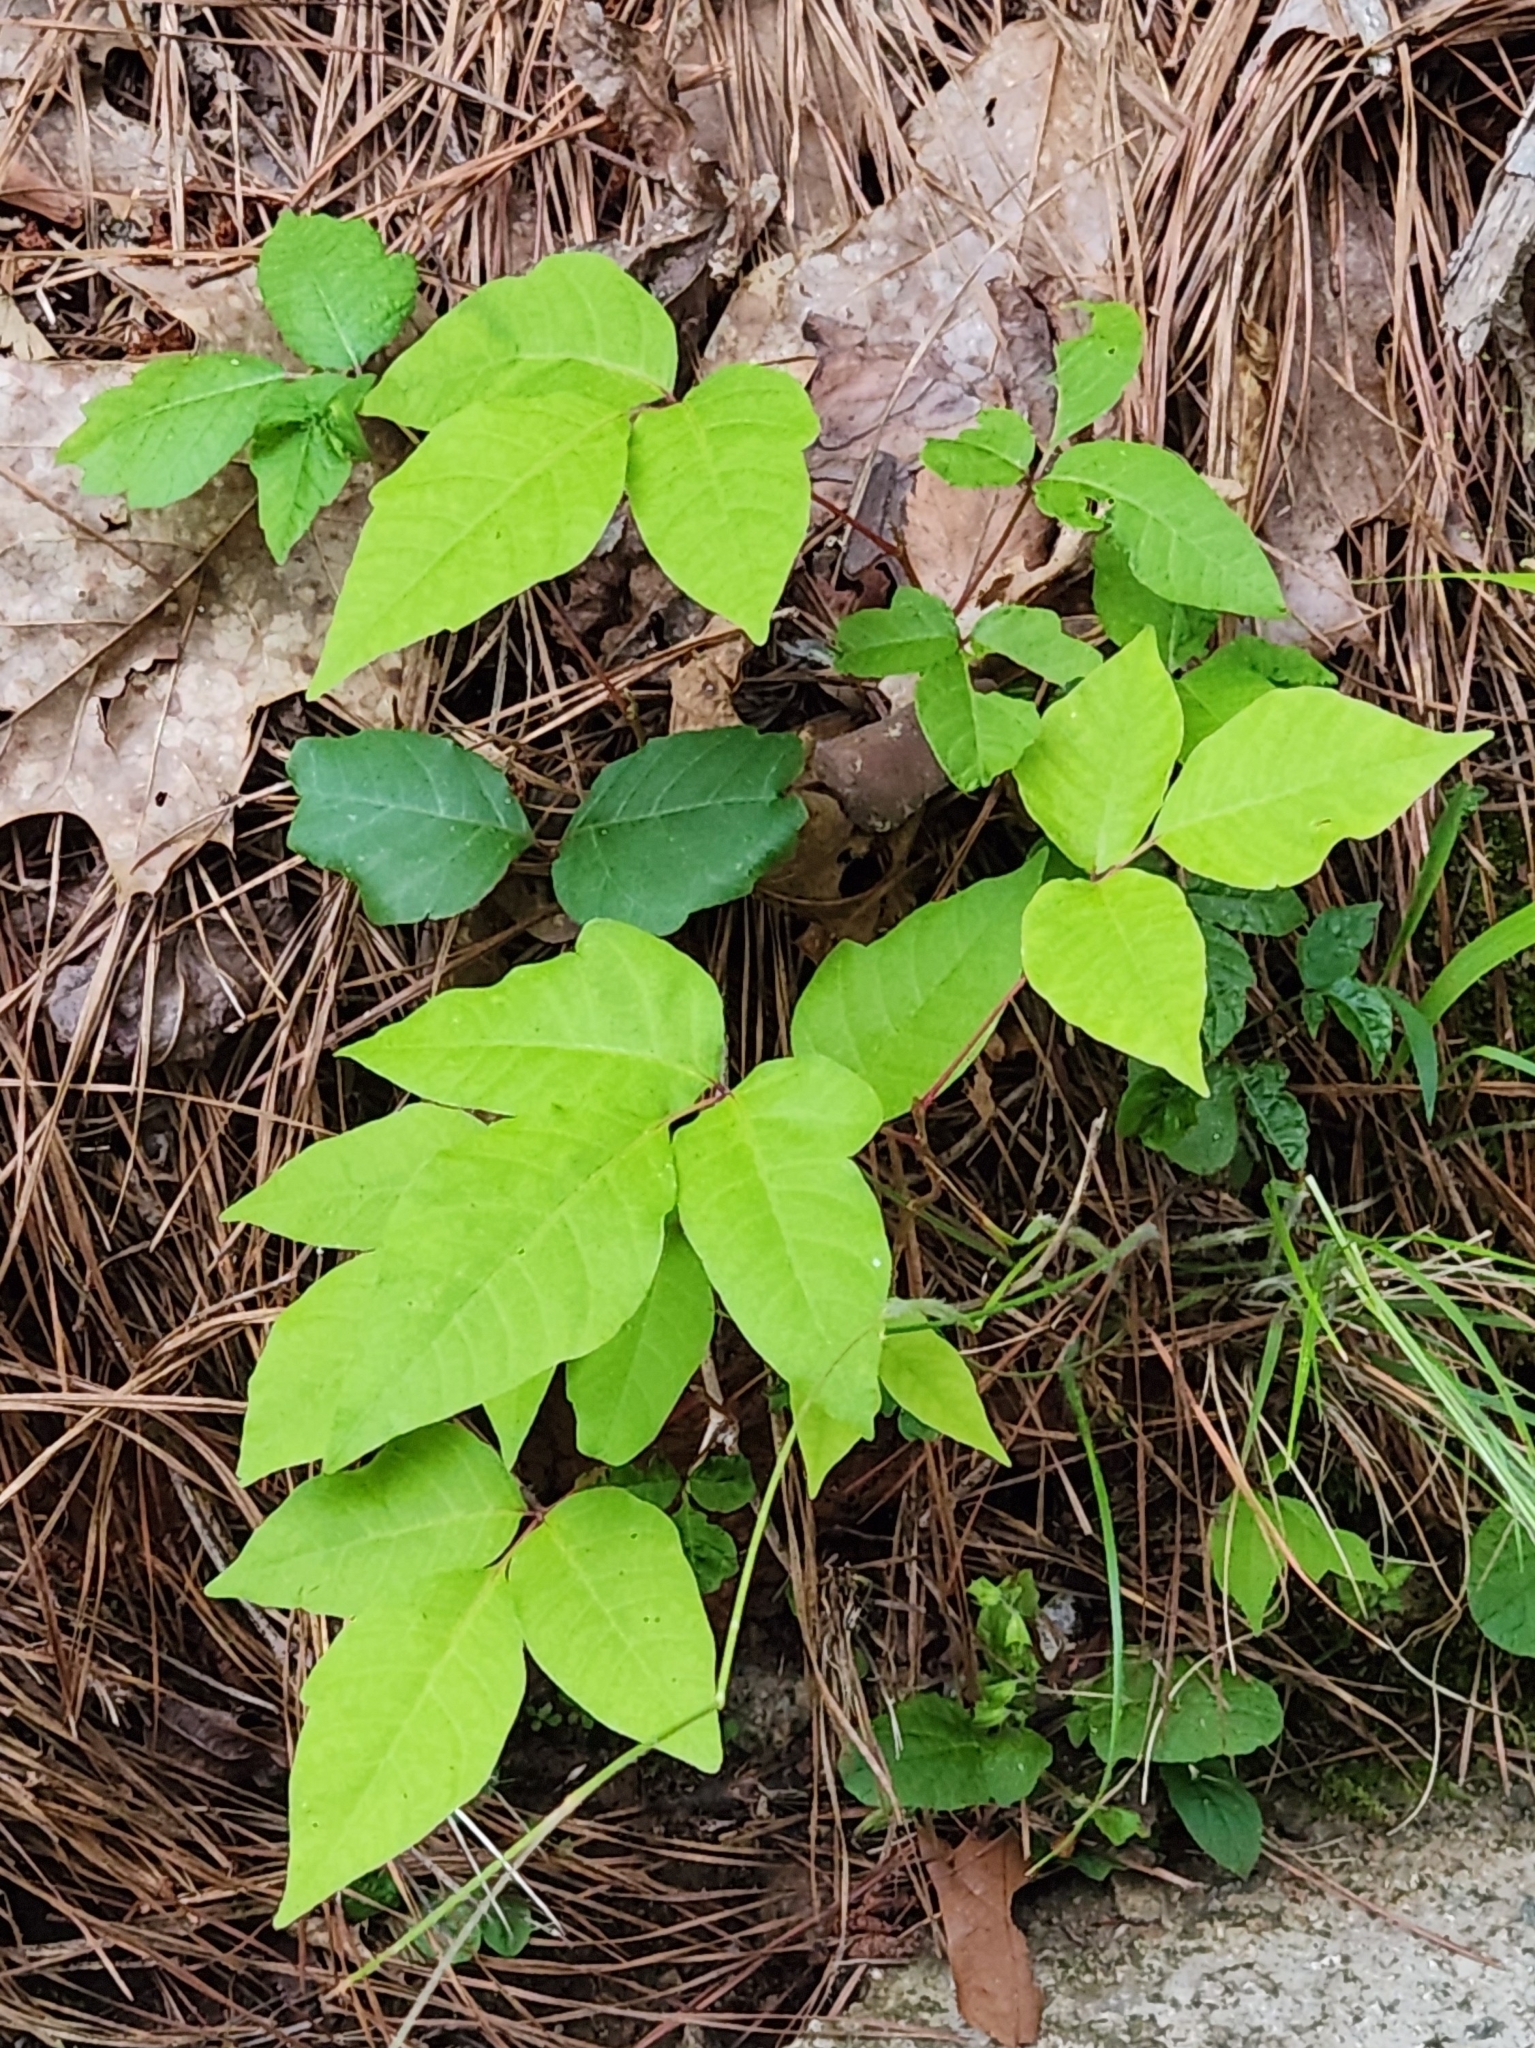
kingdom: Plantae
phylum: Tracheophyta
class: Magnoliopsida
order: Sapindales
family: Anacardiaceae
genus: Toxicodendron
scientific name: Toxicodendron radicans
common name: Poison ivy
